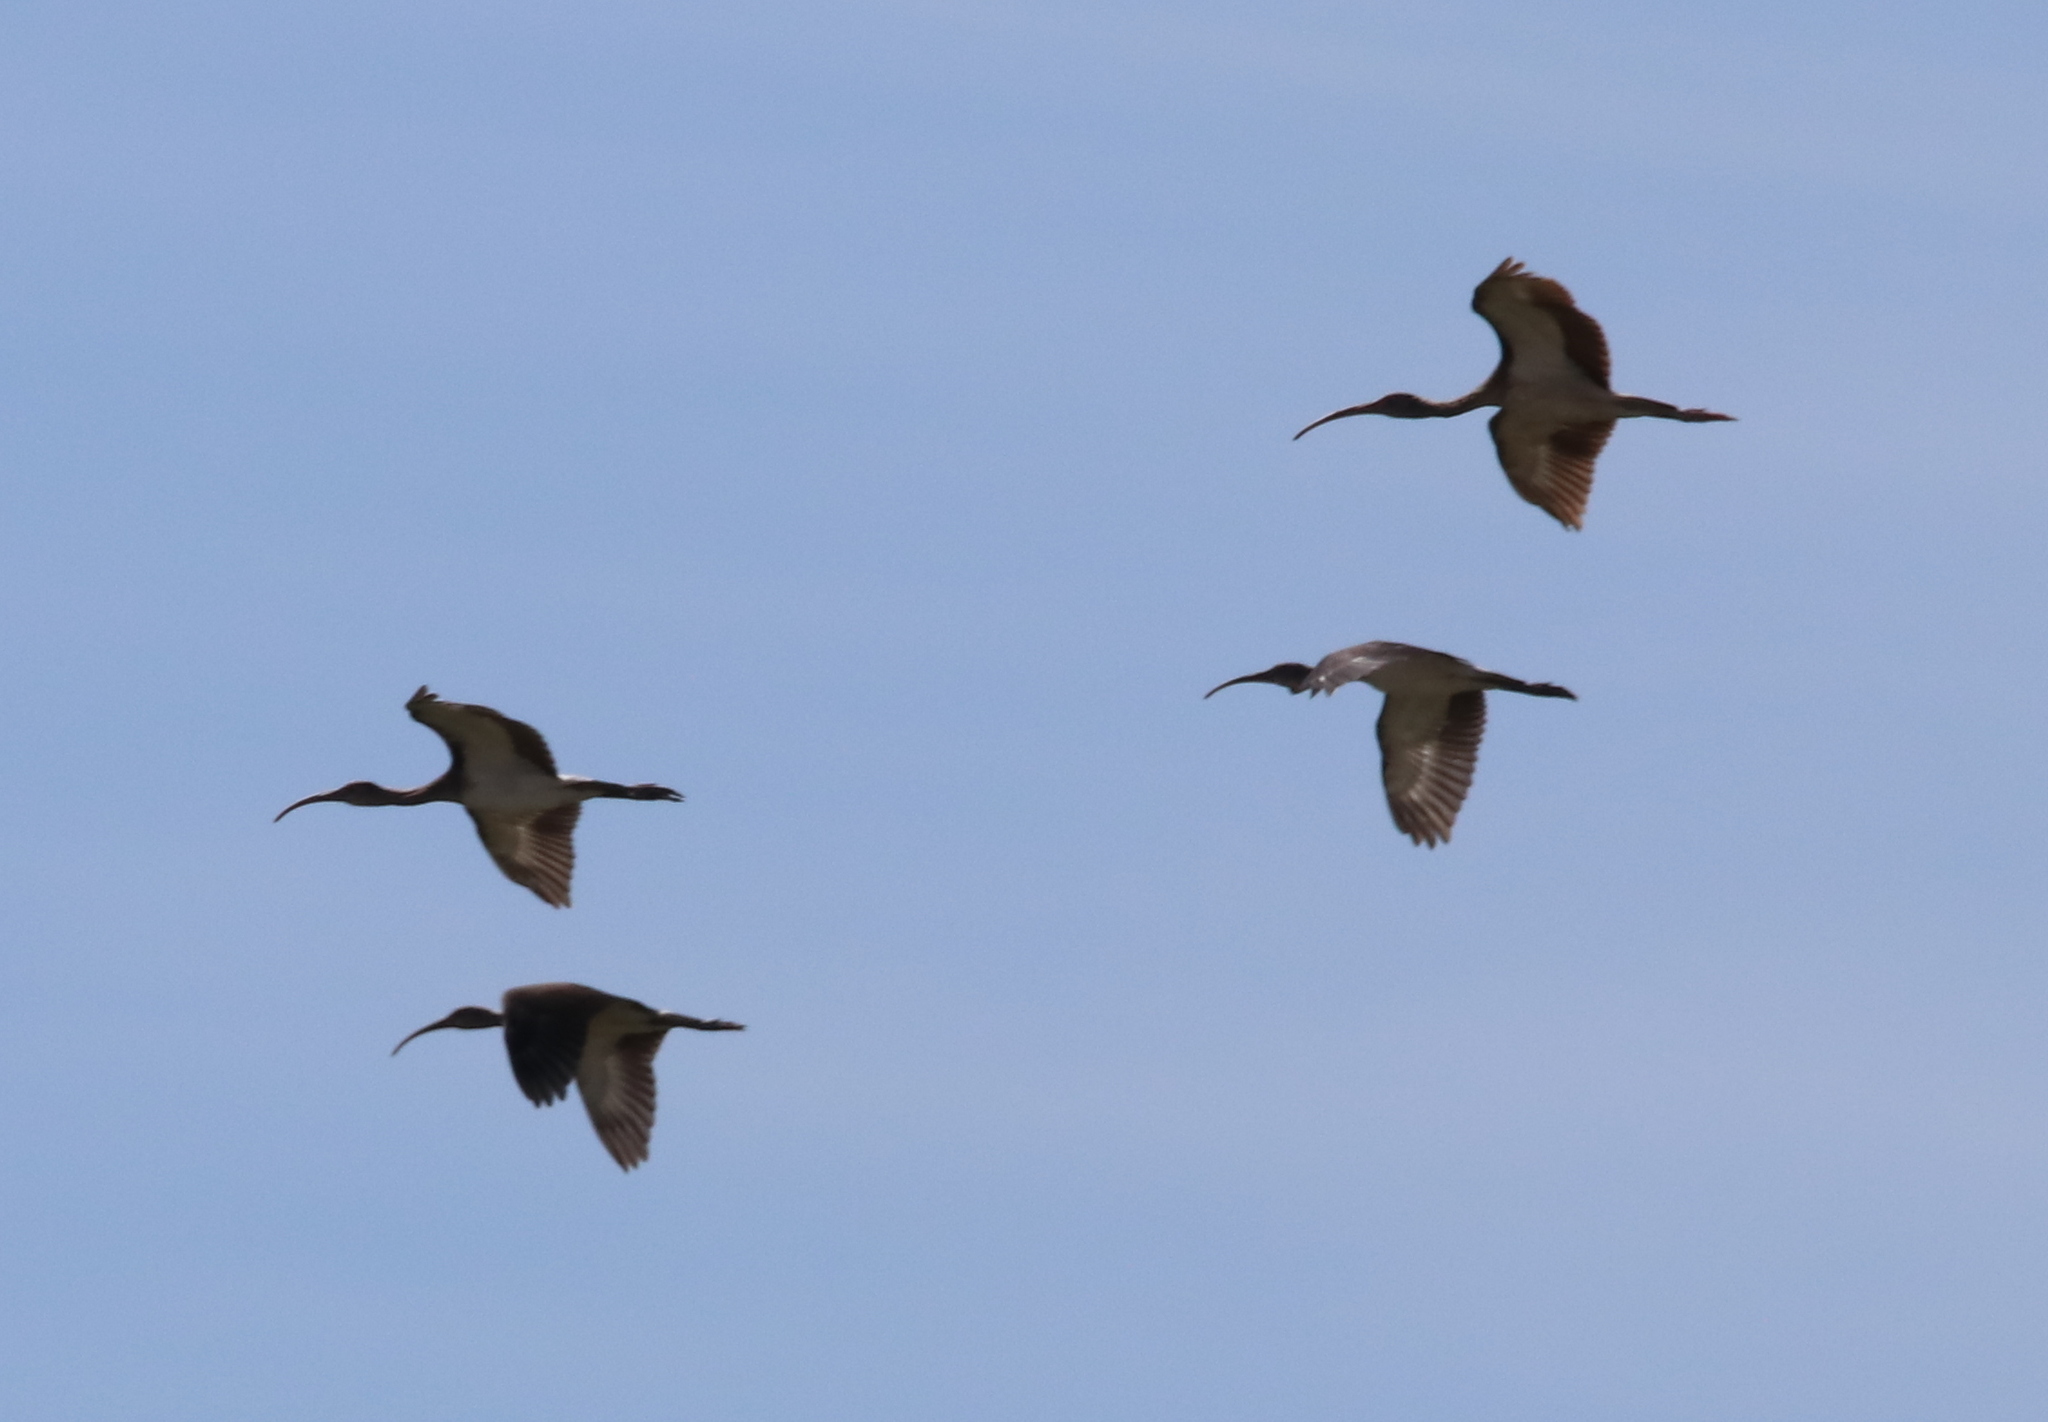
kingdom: Animalia
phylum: Chordata
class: Aves
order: Pelecaniformes
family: Threskiornithidae
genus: Eudocimus
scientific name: Eudocimus albus
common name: White ibis
